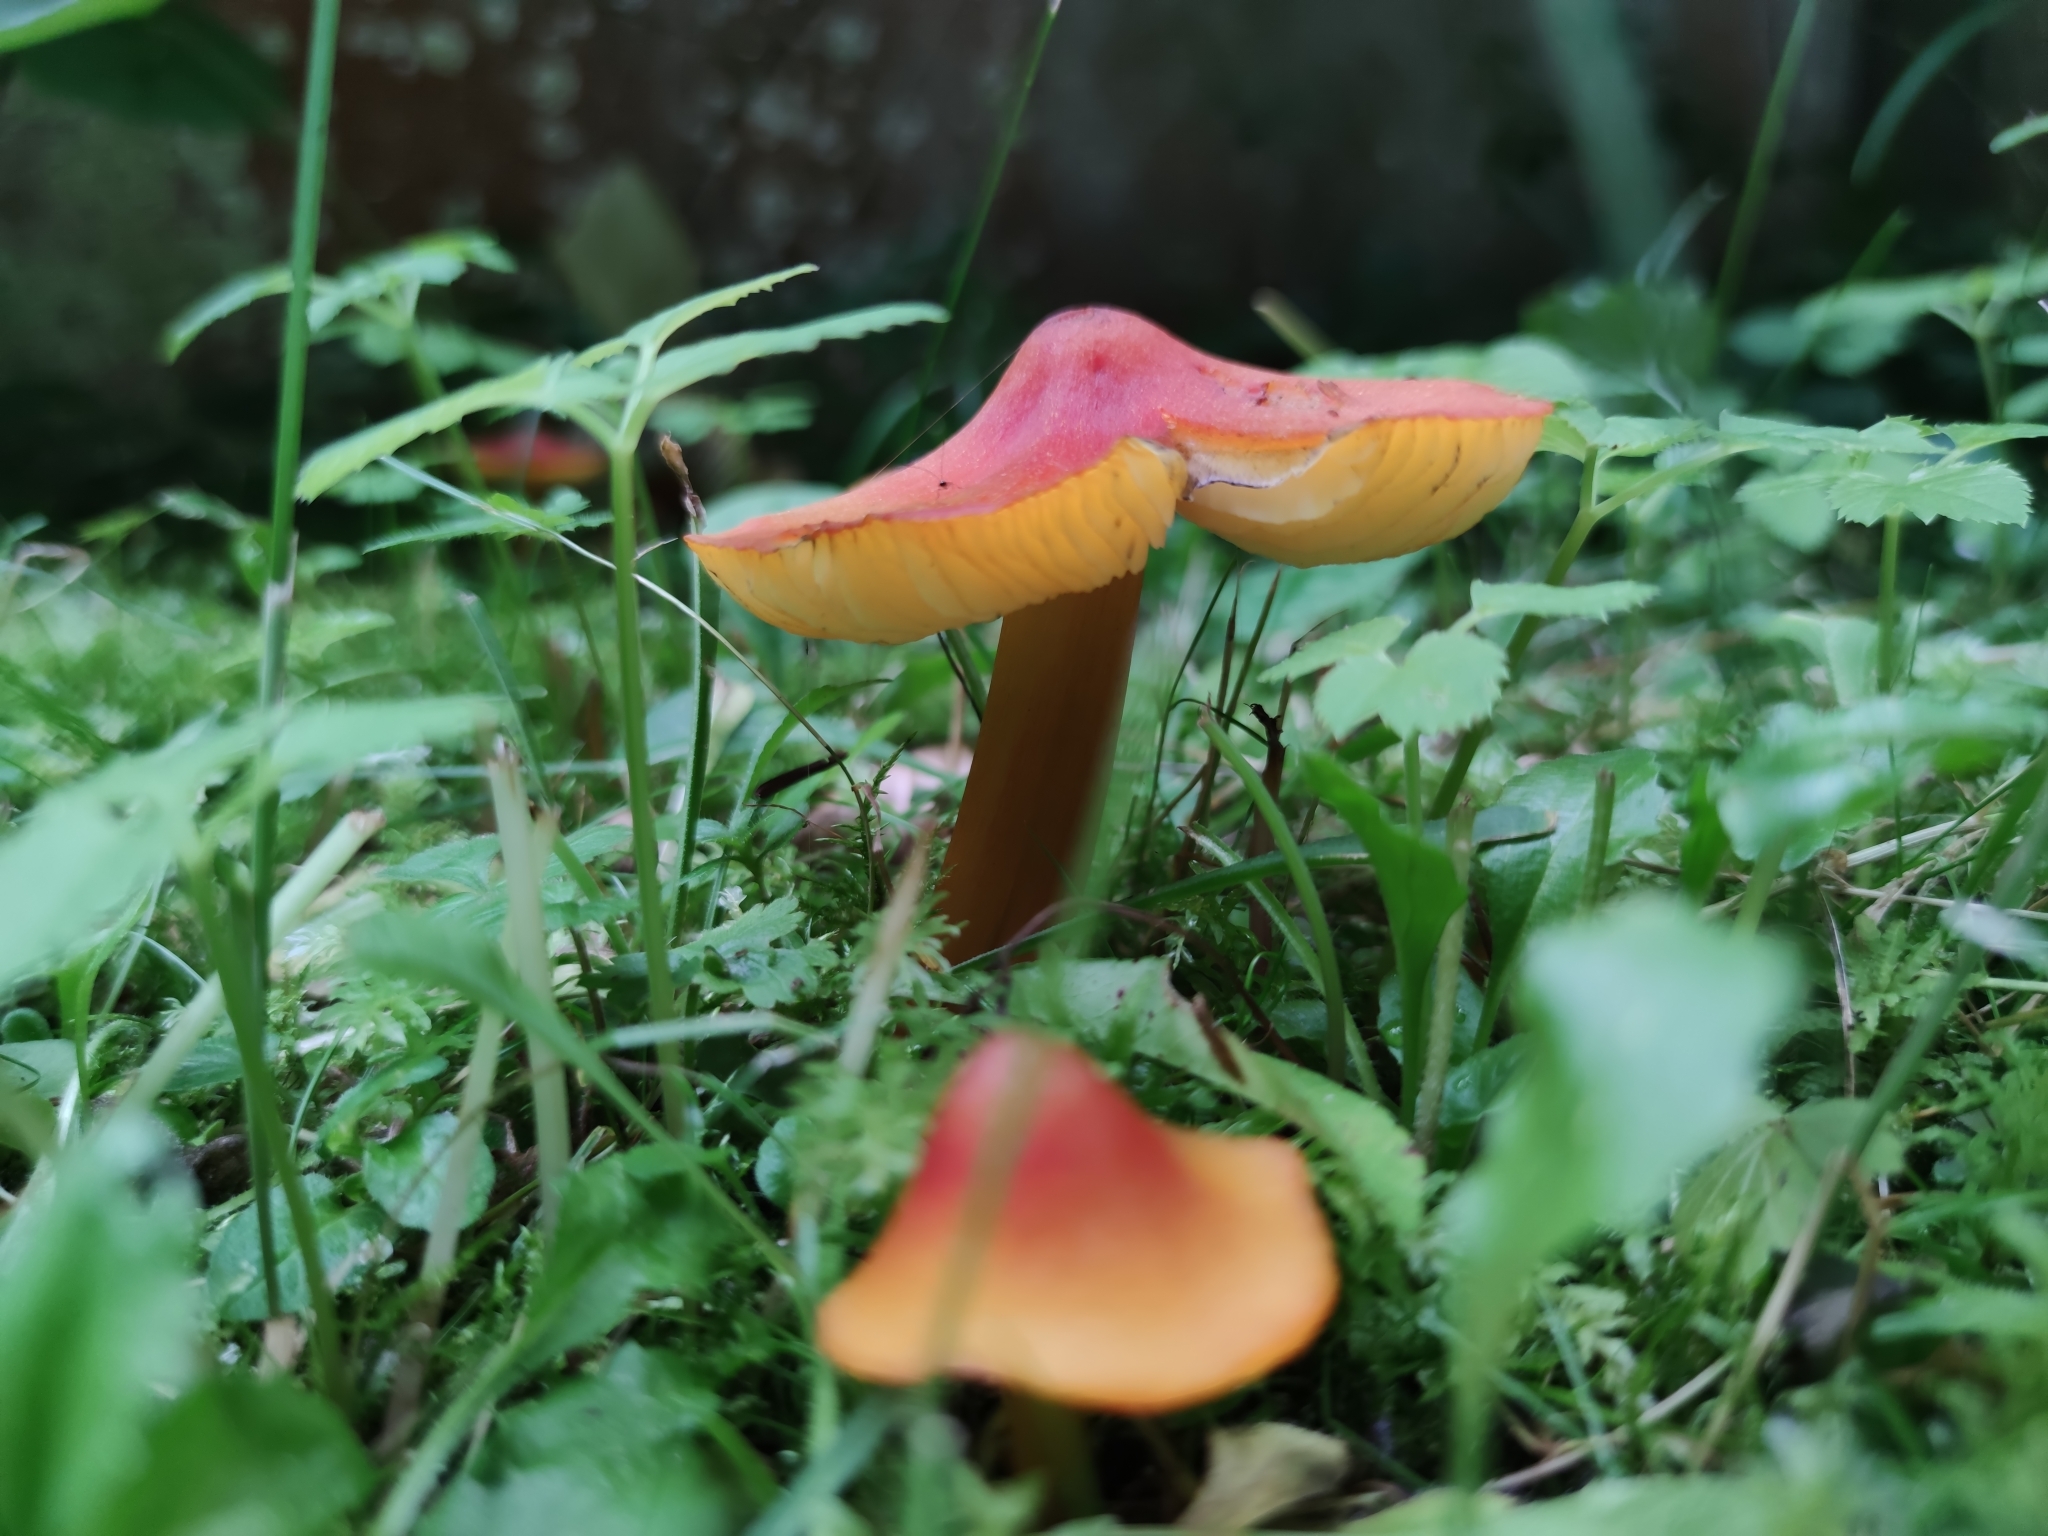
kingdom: Fungi
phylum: Basidiomycota
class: Agaricomycetes
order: Agaricales
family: Hygrophoraceae
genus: Hygrocybe
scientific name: Hygrocybe conica
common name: Blackening wax-cap
